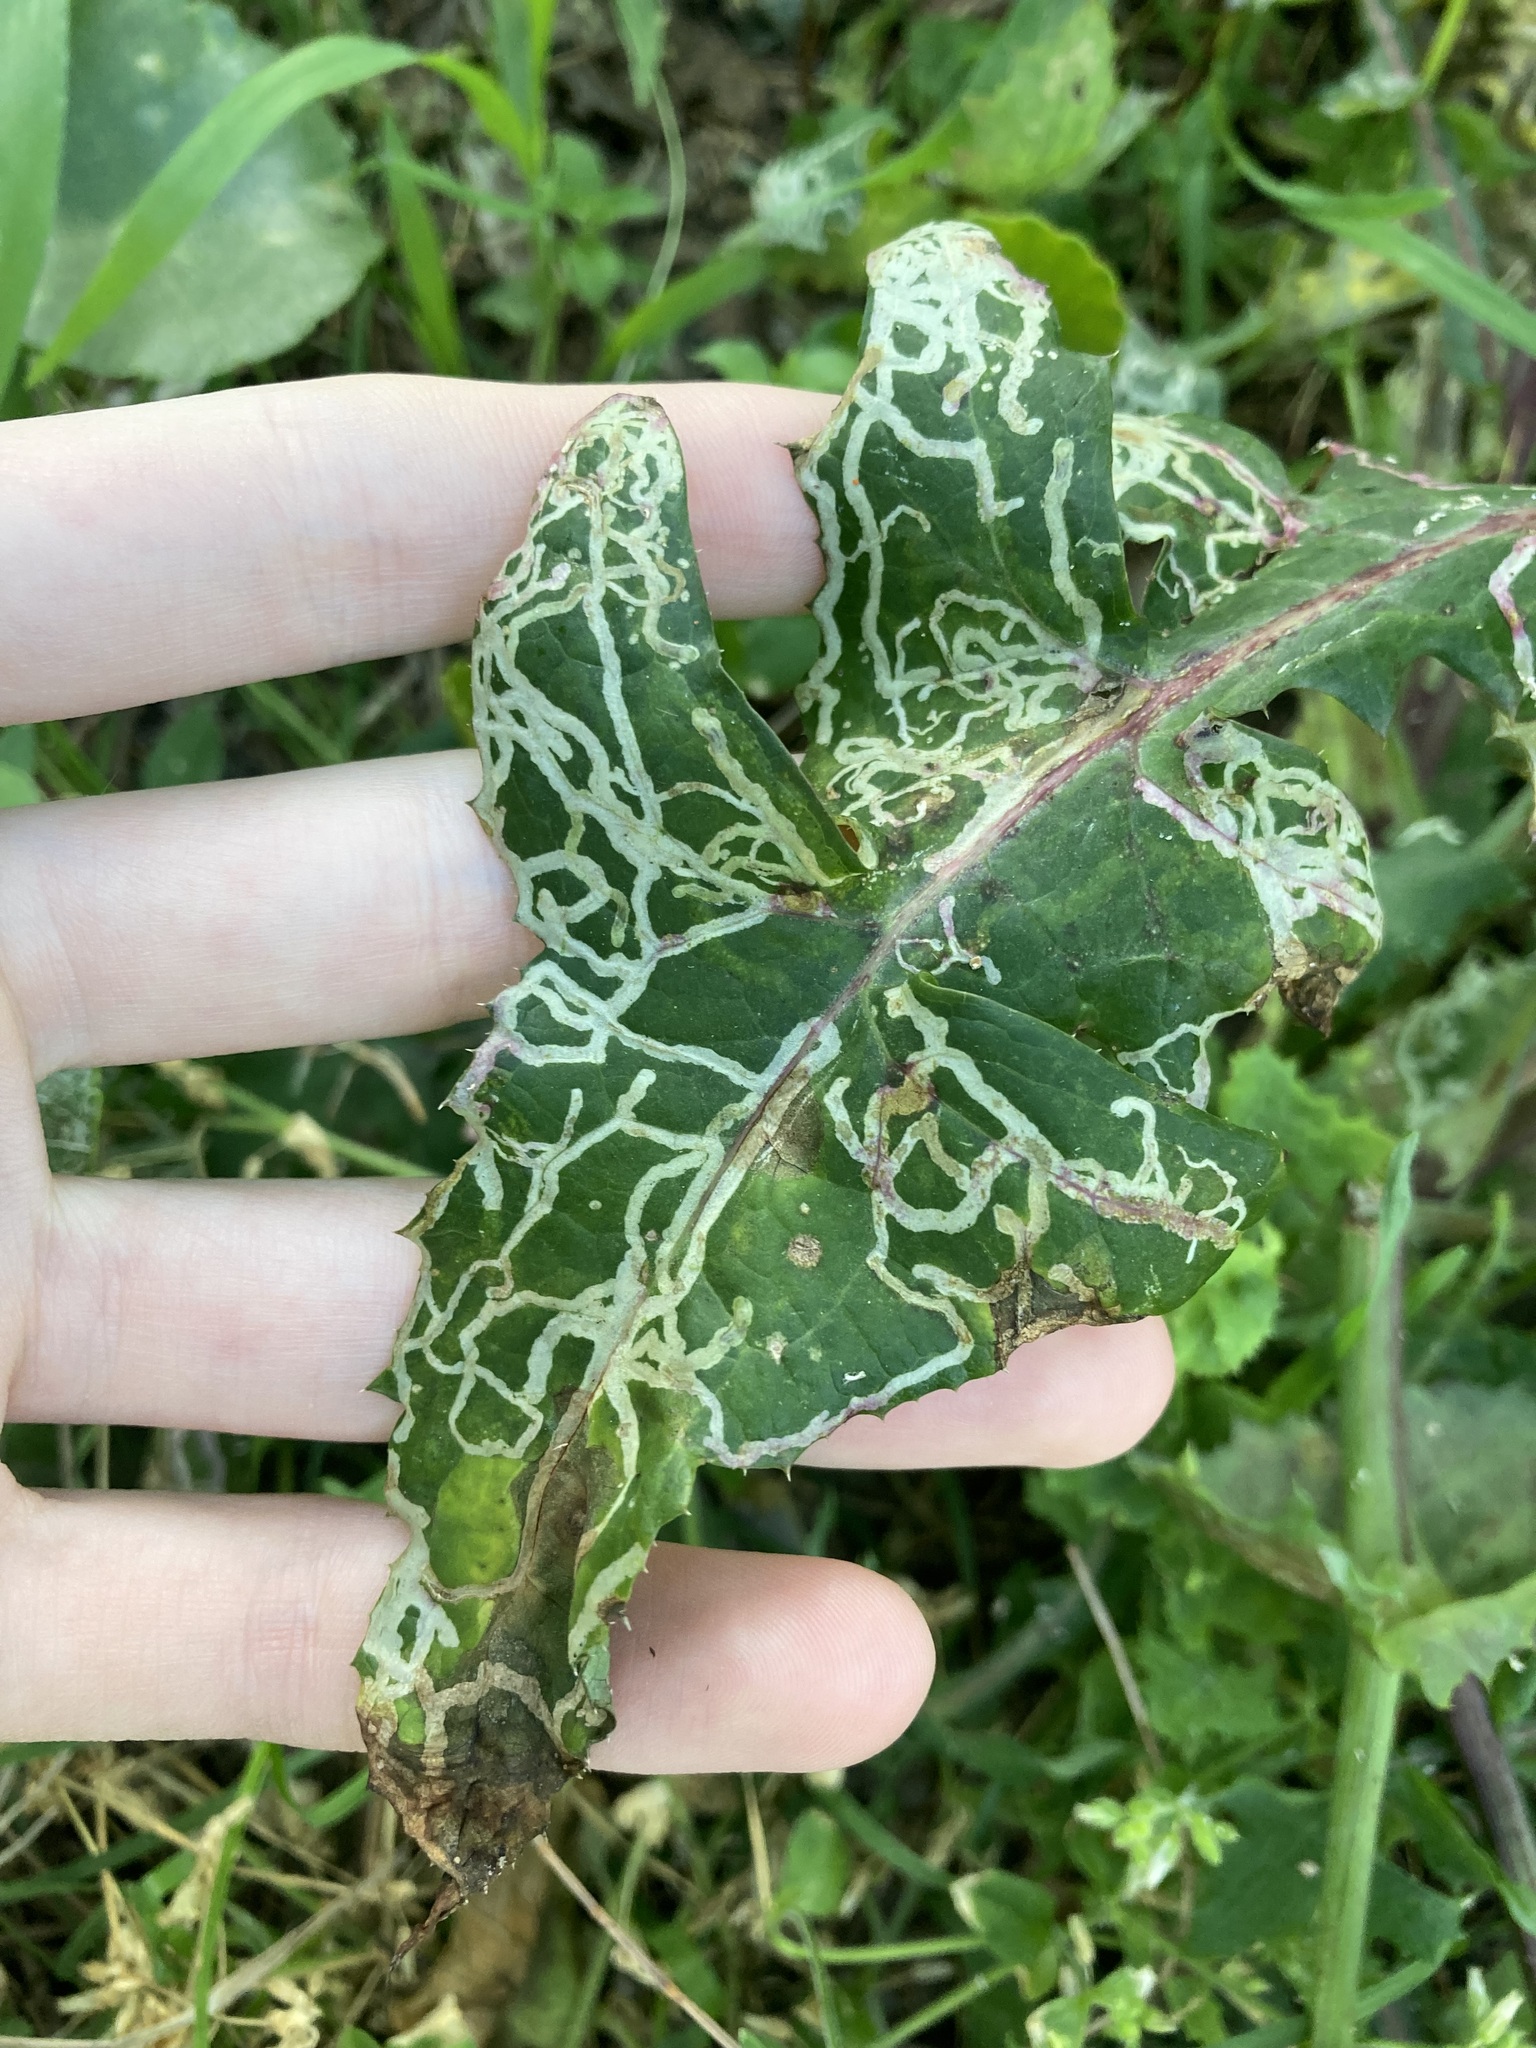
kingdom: Animalia
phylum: Arthropoda
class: Insecta
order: Diptera
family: Agromyzidae
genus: Phytomyza
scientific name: Phytomyza syngenesiae
